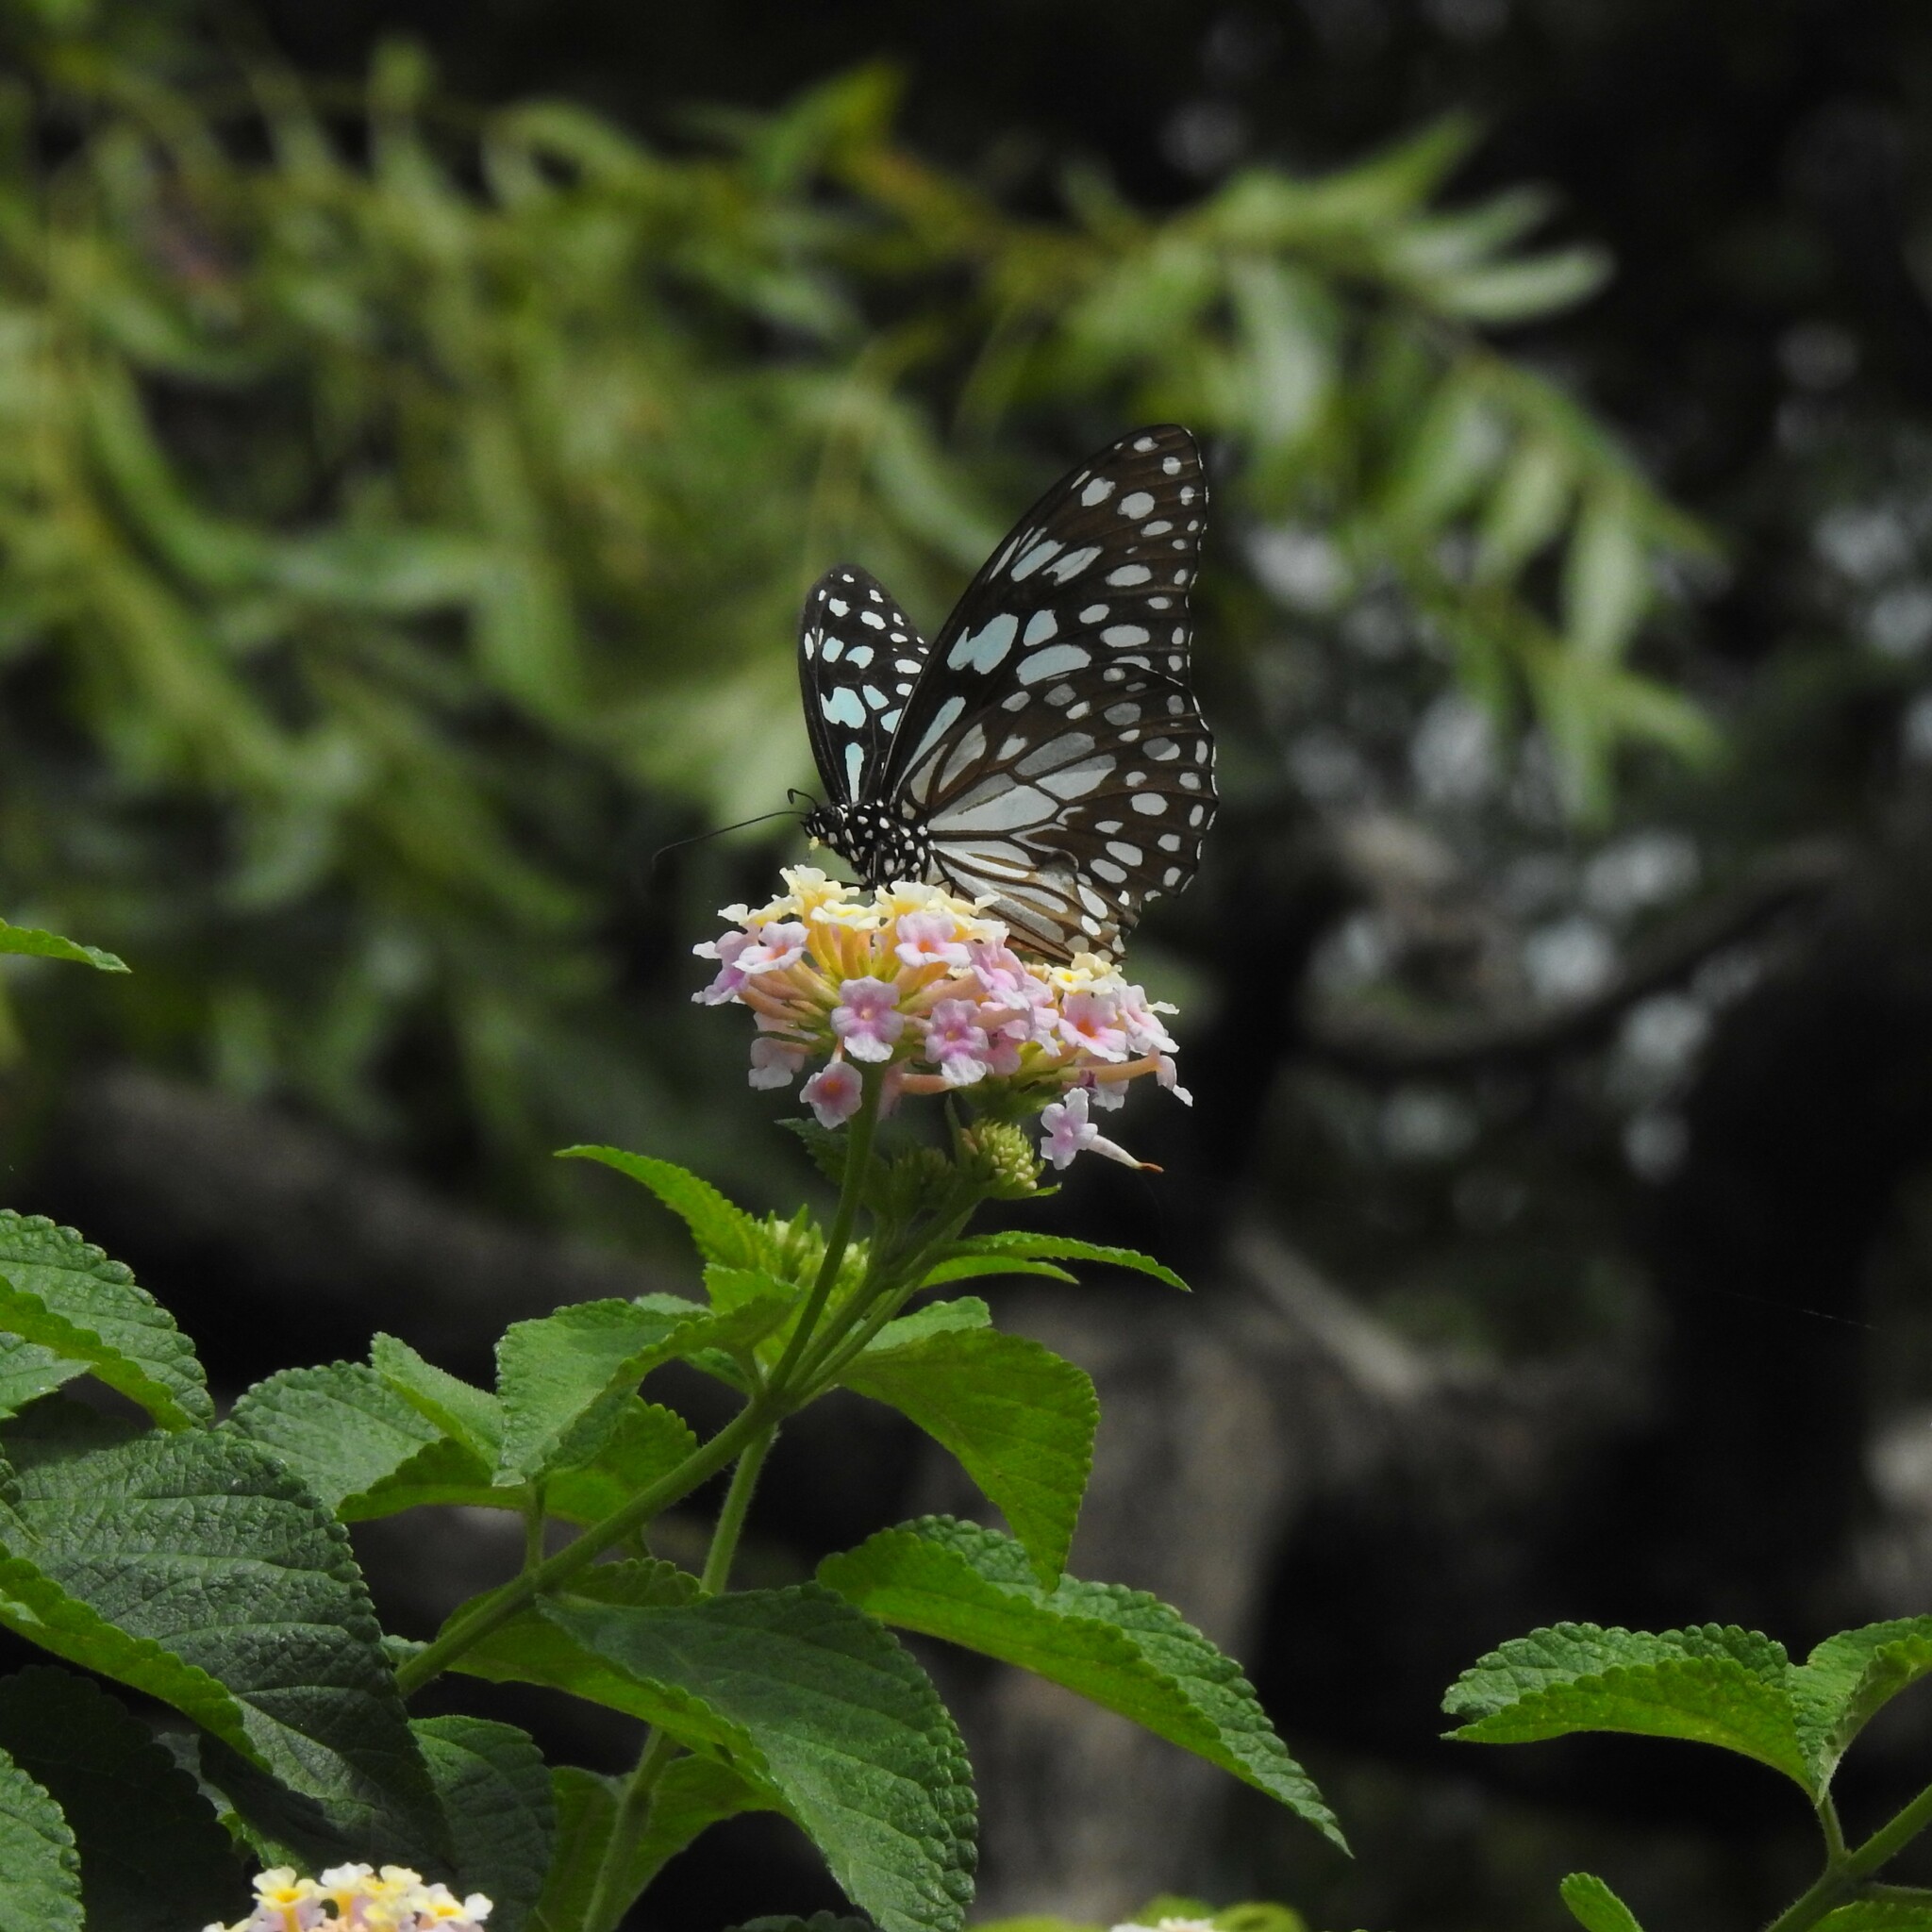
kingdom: Animalia
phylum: Arthropoda
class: Insecta
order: Lepidoptera
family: Nymphalidae
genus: Tirumala
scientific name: Tirumala limniace
